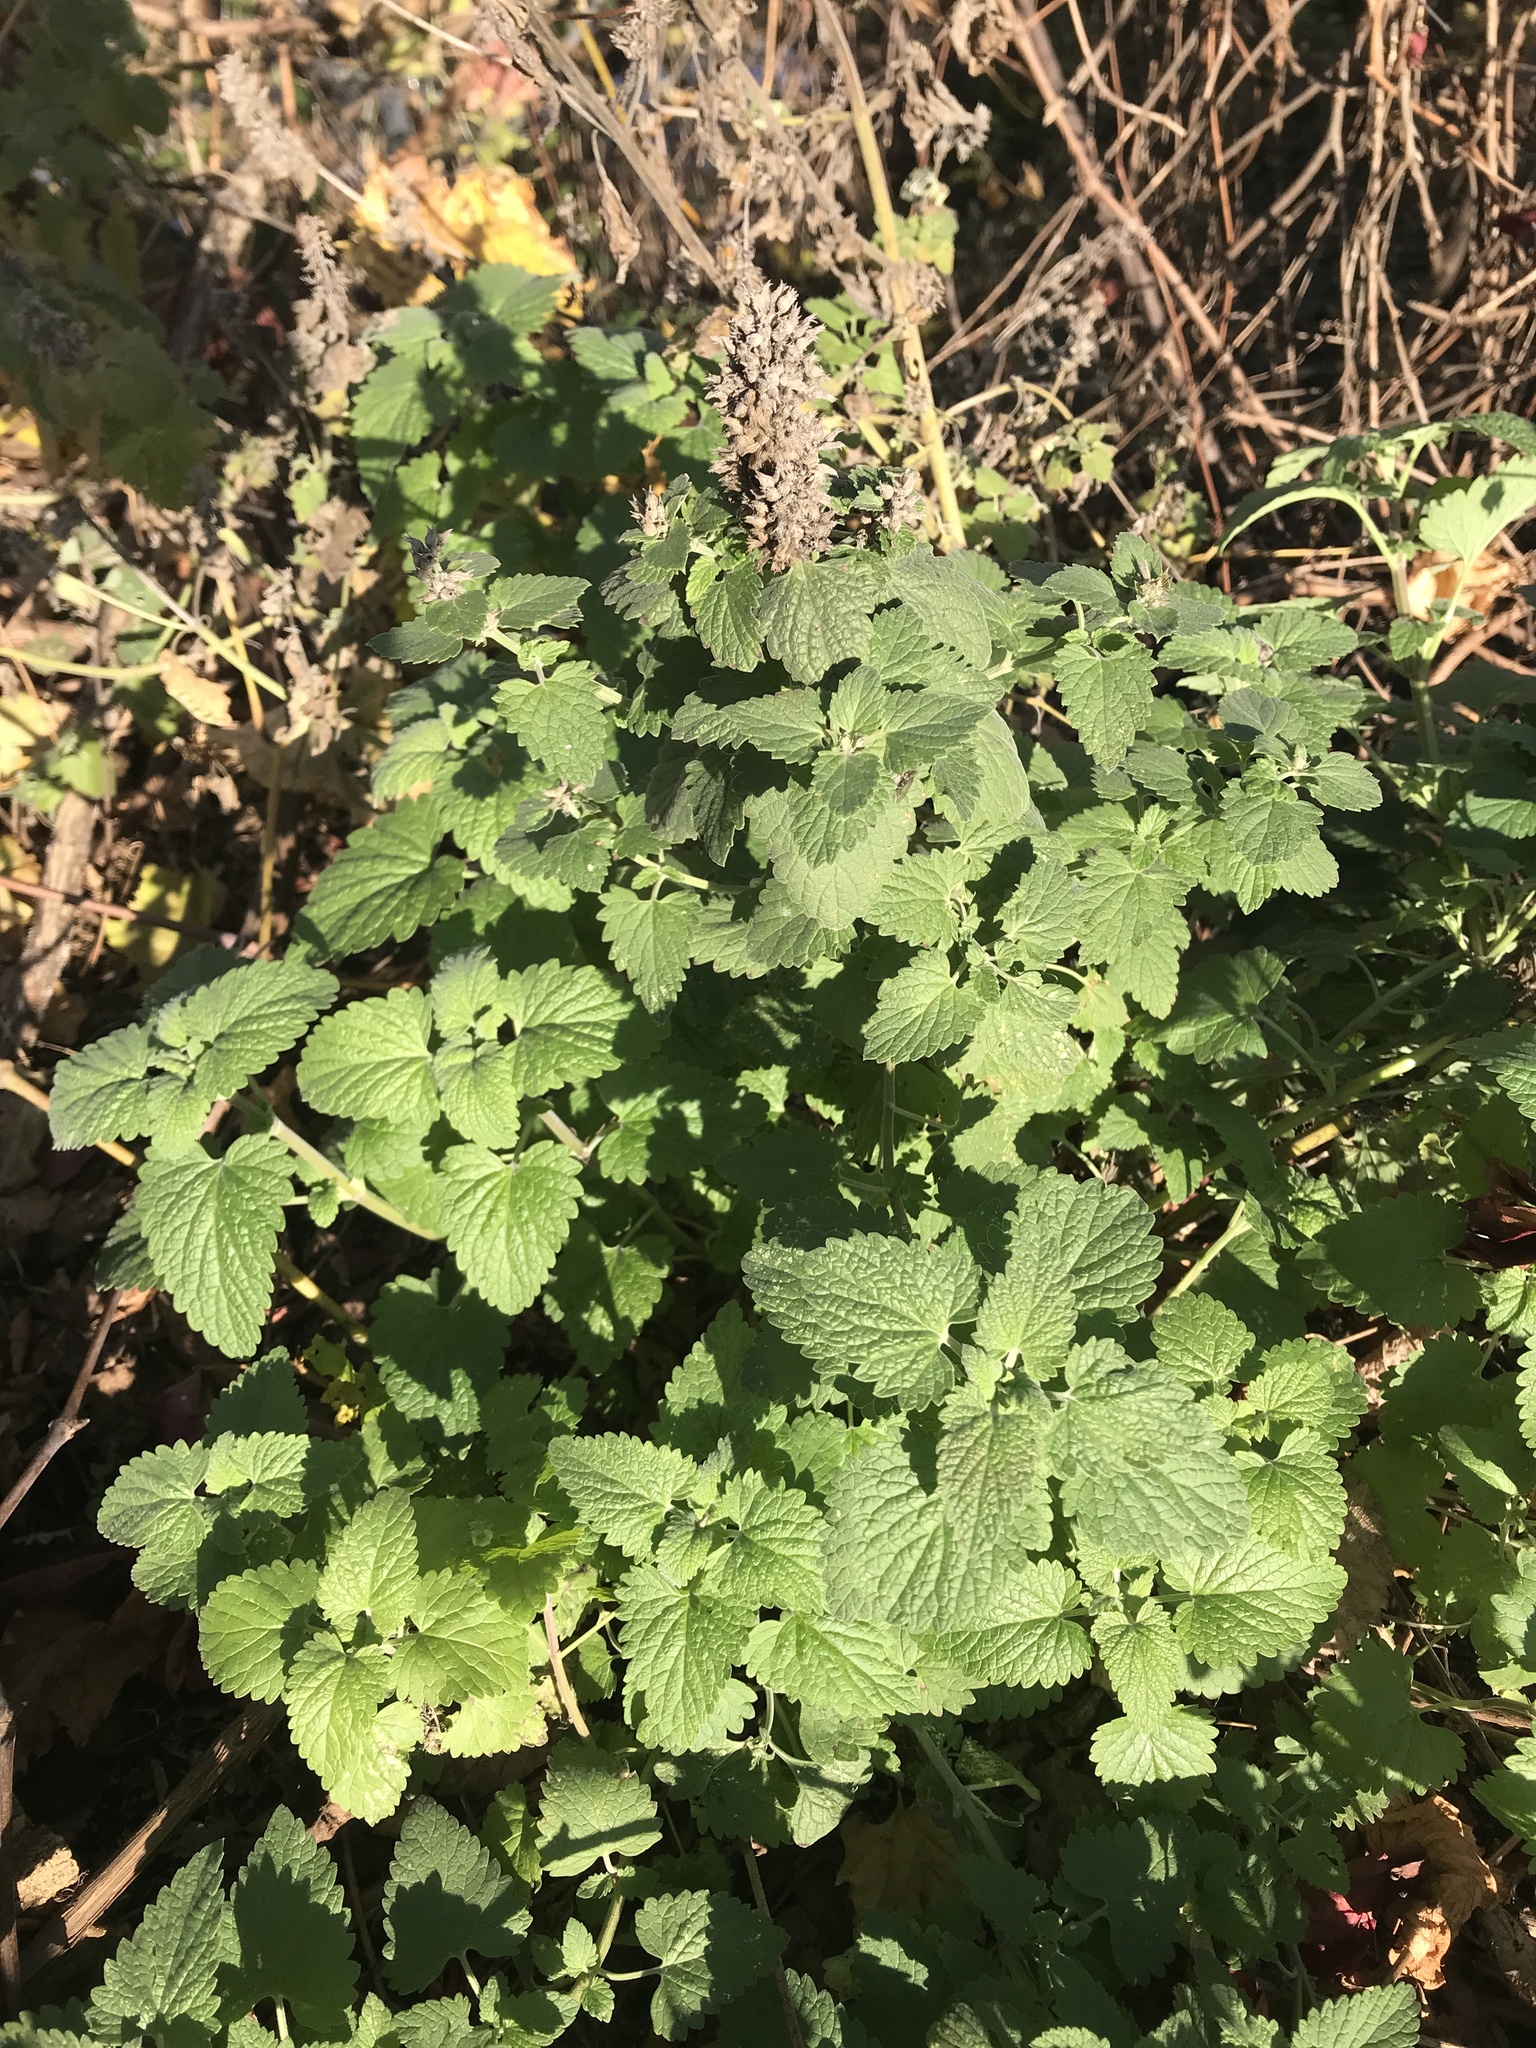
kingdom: Plantae
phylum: Tracheophyta
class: Magnoliopsida
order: Lamiales
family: Lamiaceae
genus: Nepeta
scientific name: Nepeta cataria
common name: Catnip
